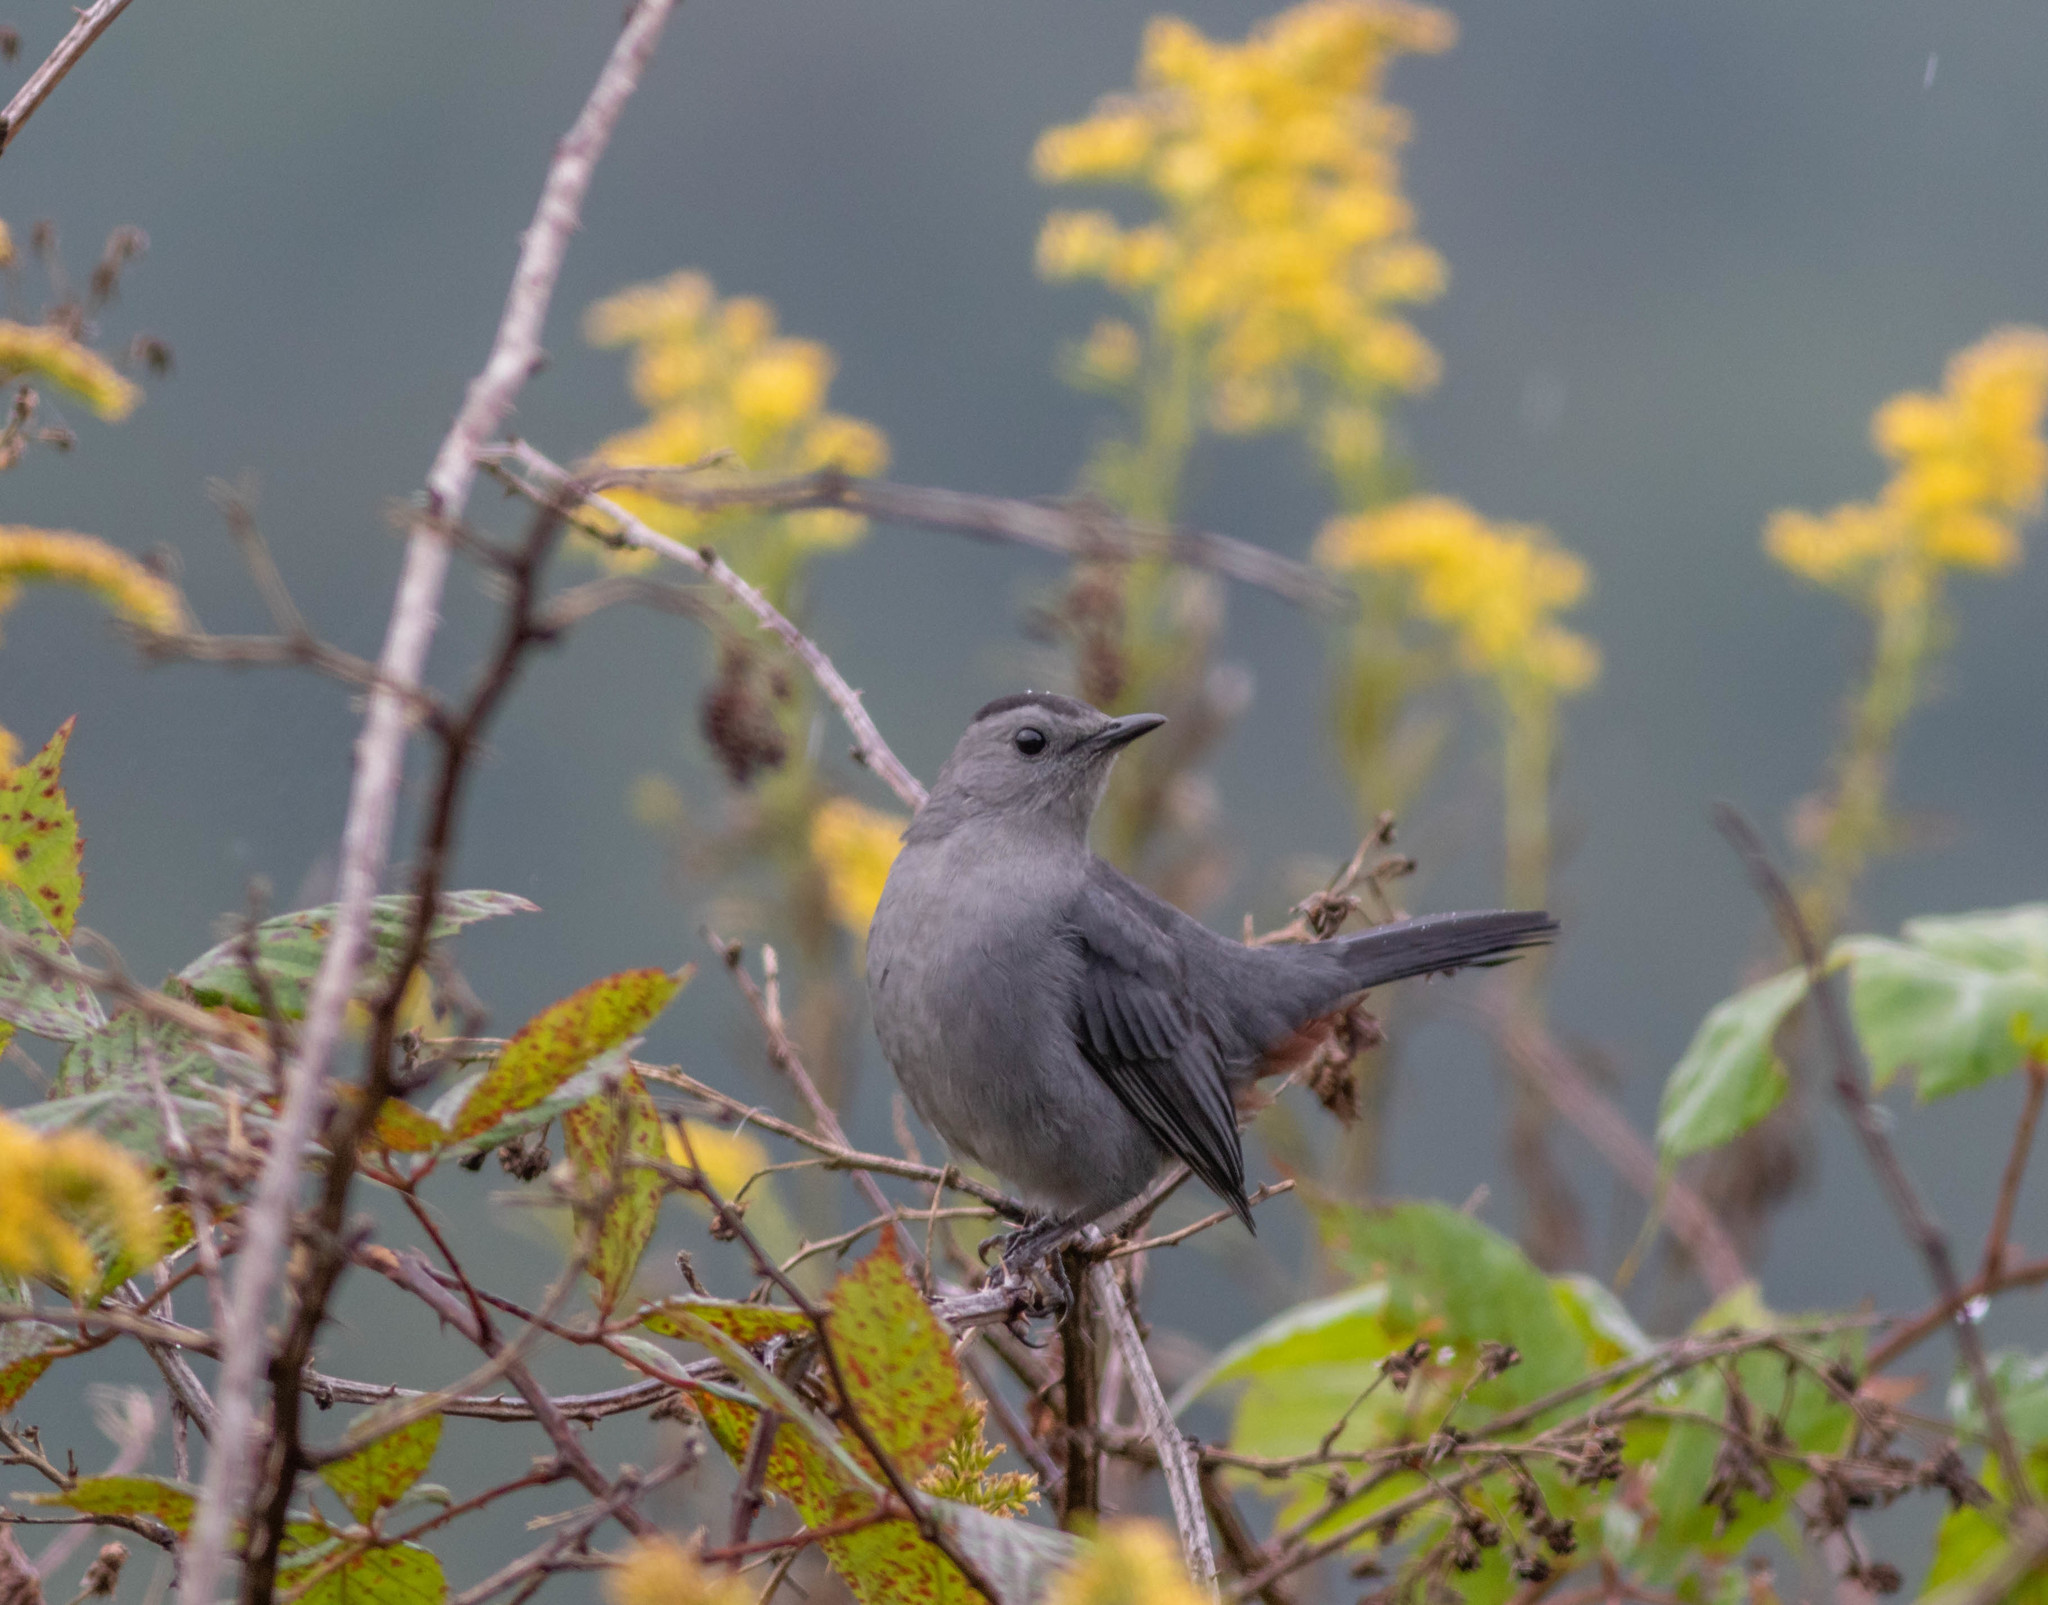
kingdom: Animalia
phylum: Chordata
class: Aves
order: Passeriformes
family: Mimidae
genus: Dumetella
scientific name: Dumetella carolinensis
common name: Gray catbird
